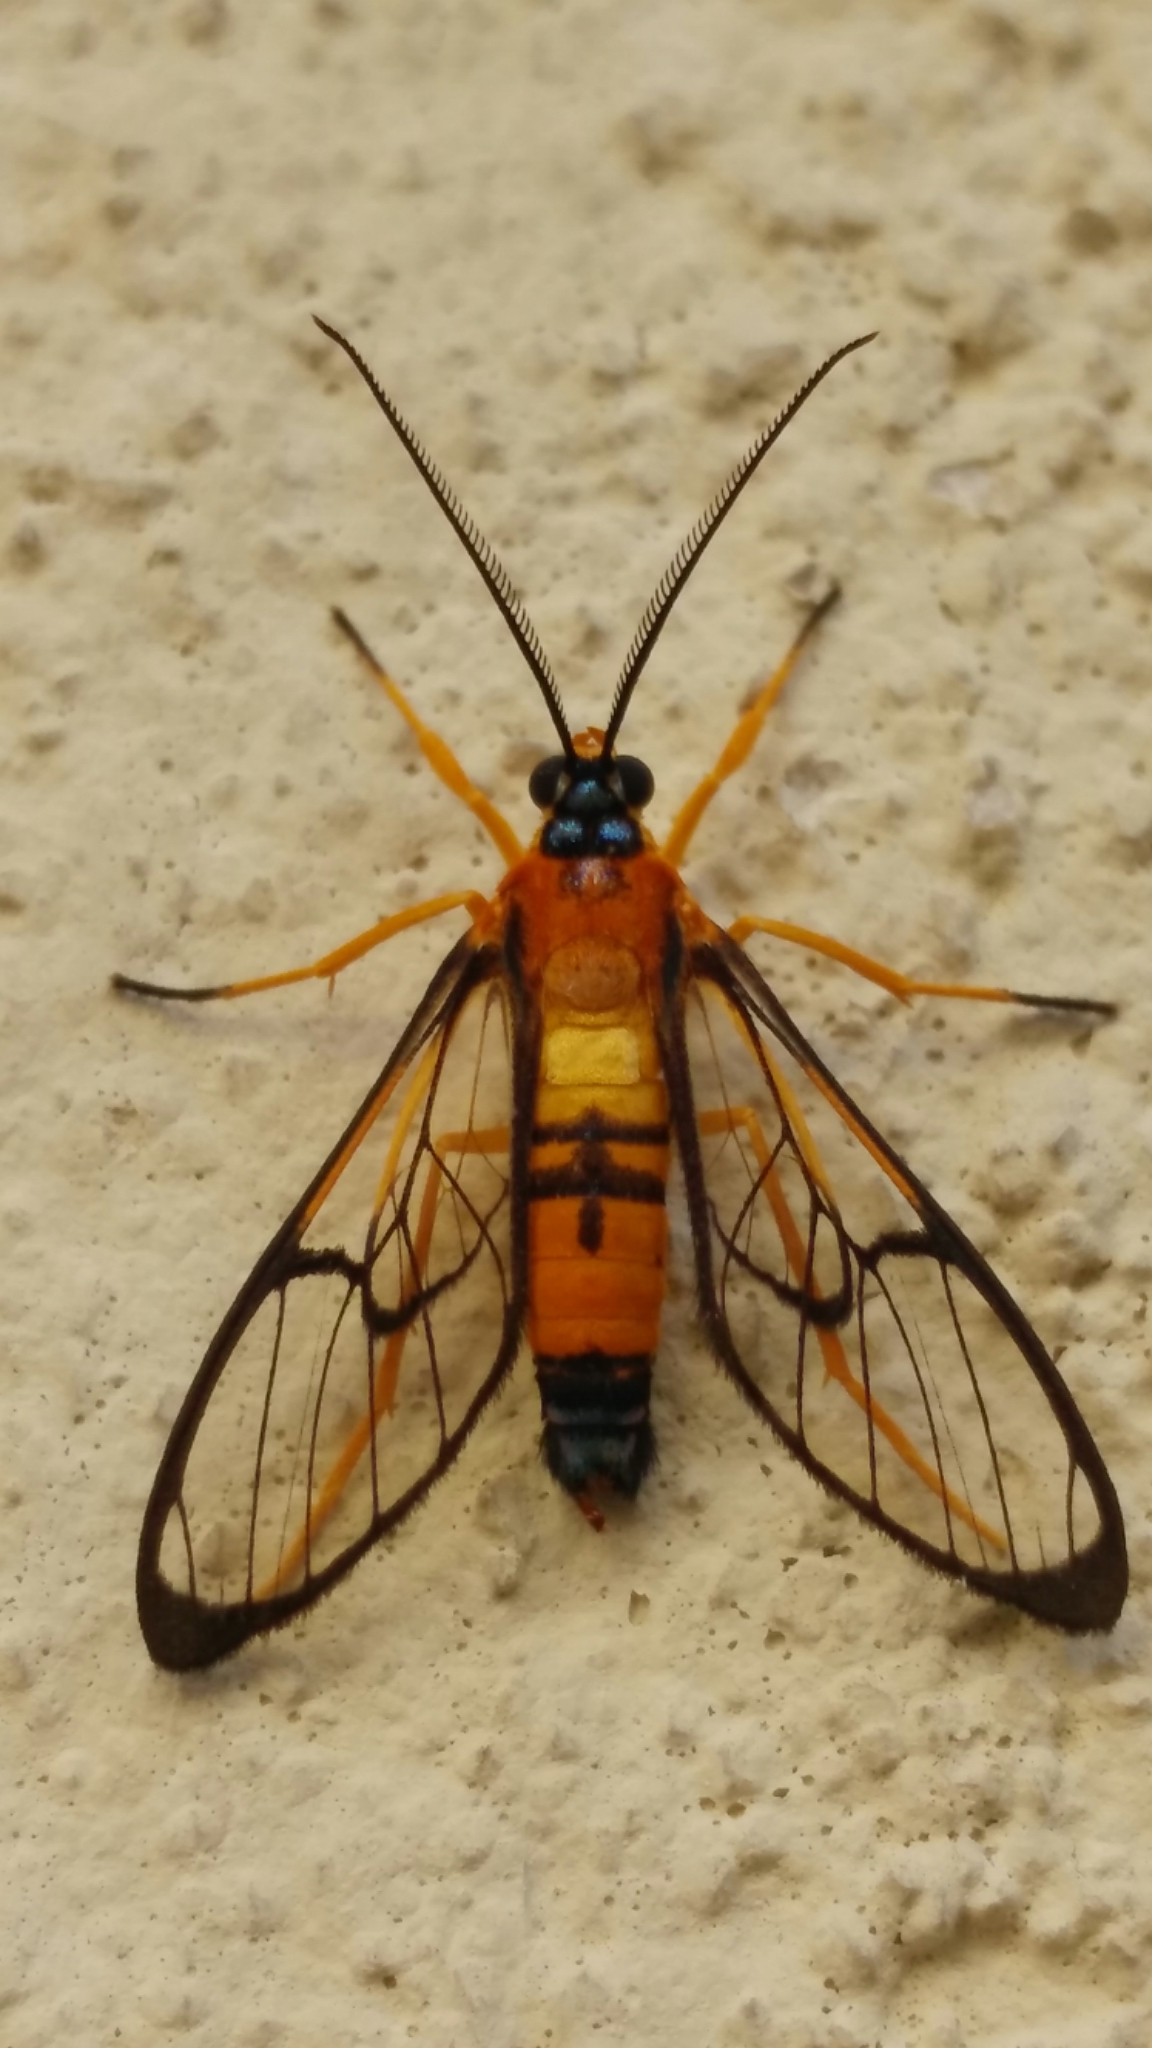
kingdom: Animalia
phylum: Arthropoda
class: Insecta
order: Lepidoptera
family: Erebidae
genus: Pseudosphex
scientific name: Pseudosphex leovazquezae
